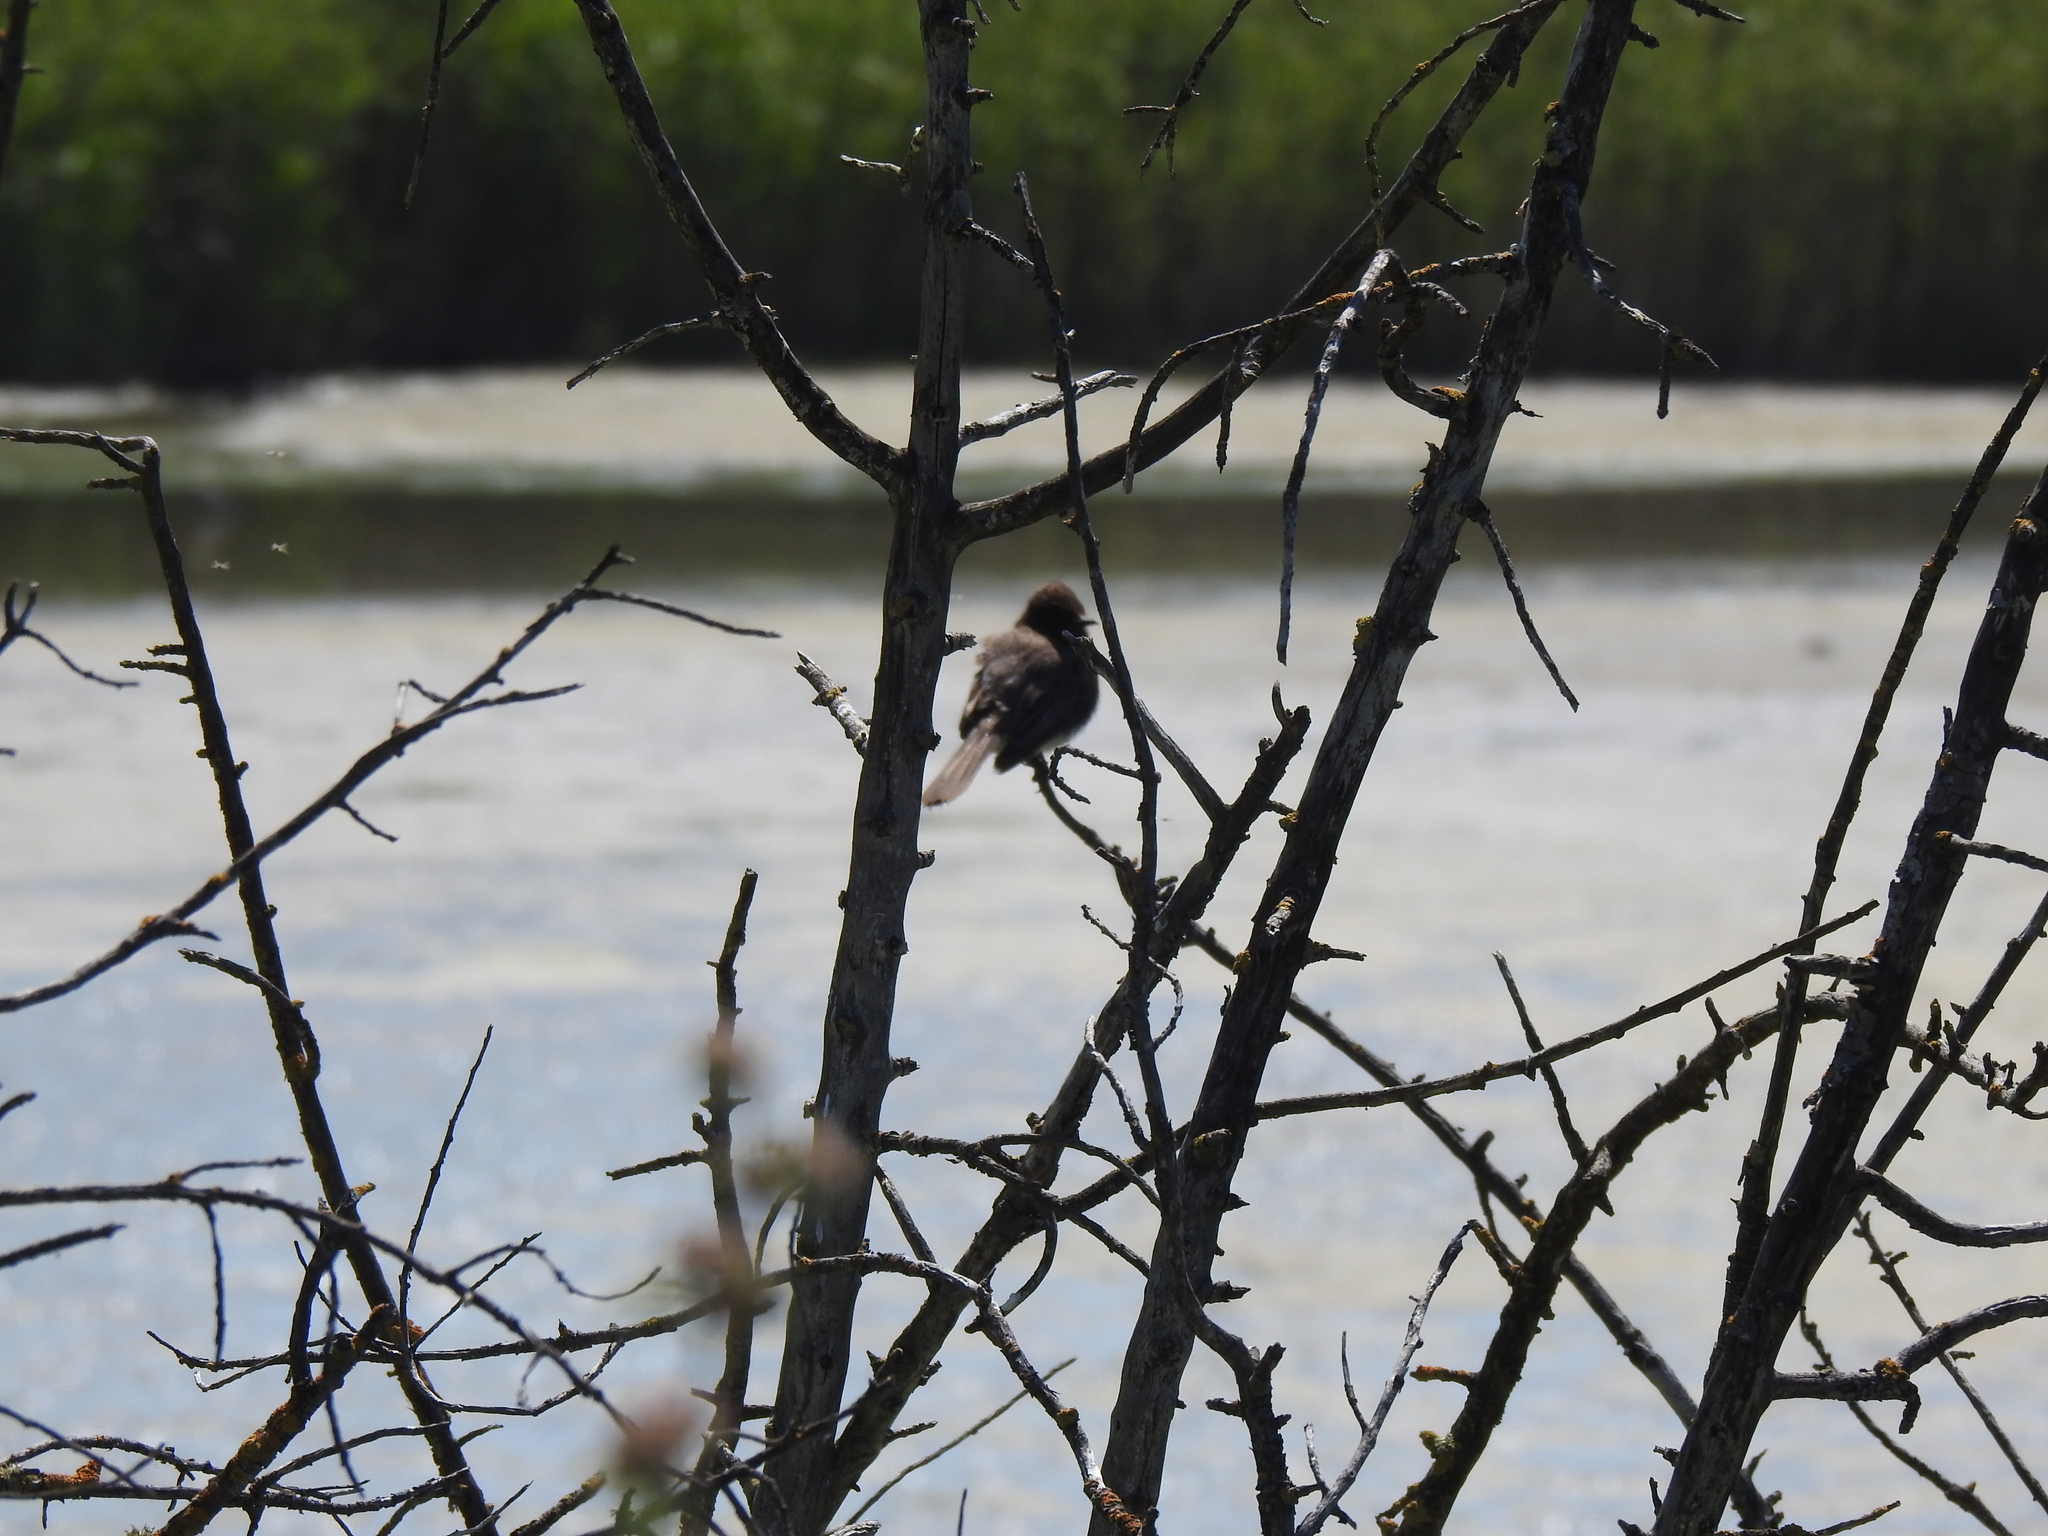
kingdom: Animalia
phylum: Chordata
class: Aves
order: Passeriformes
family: Tyrannidae
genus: Sayornis
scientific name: Sayornis nigricans
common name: Black phoebe
